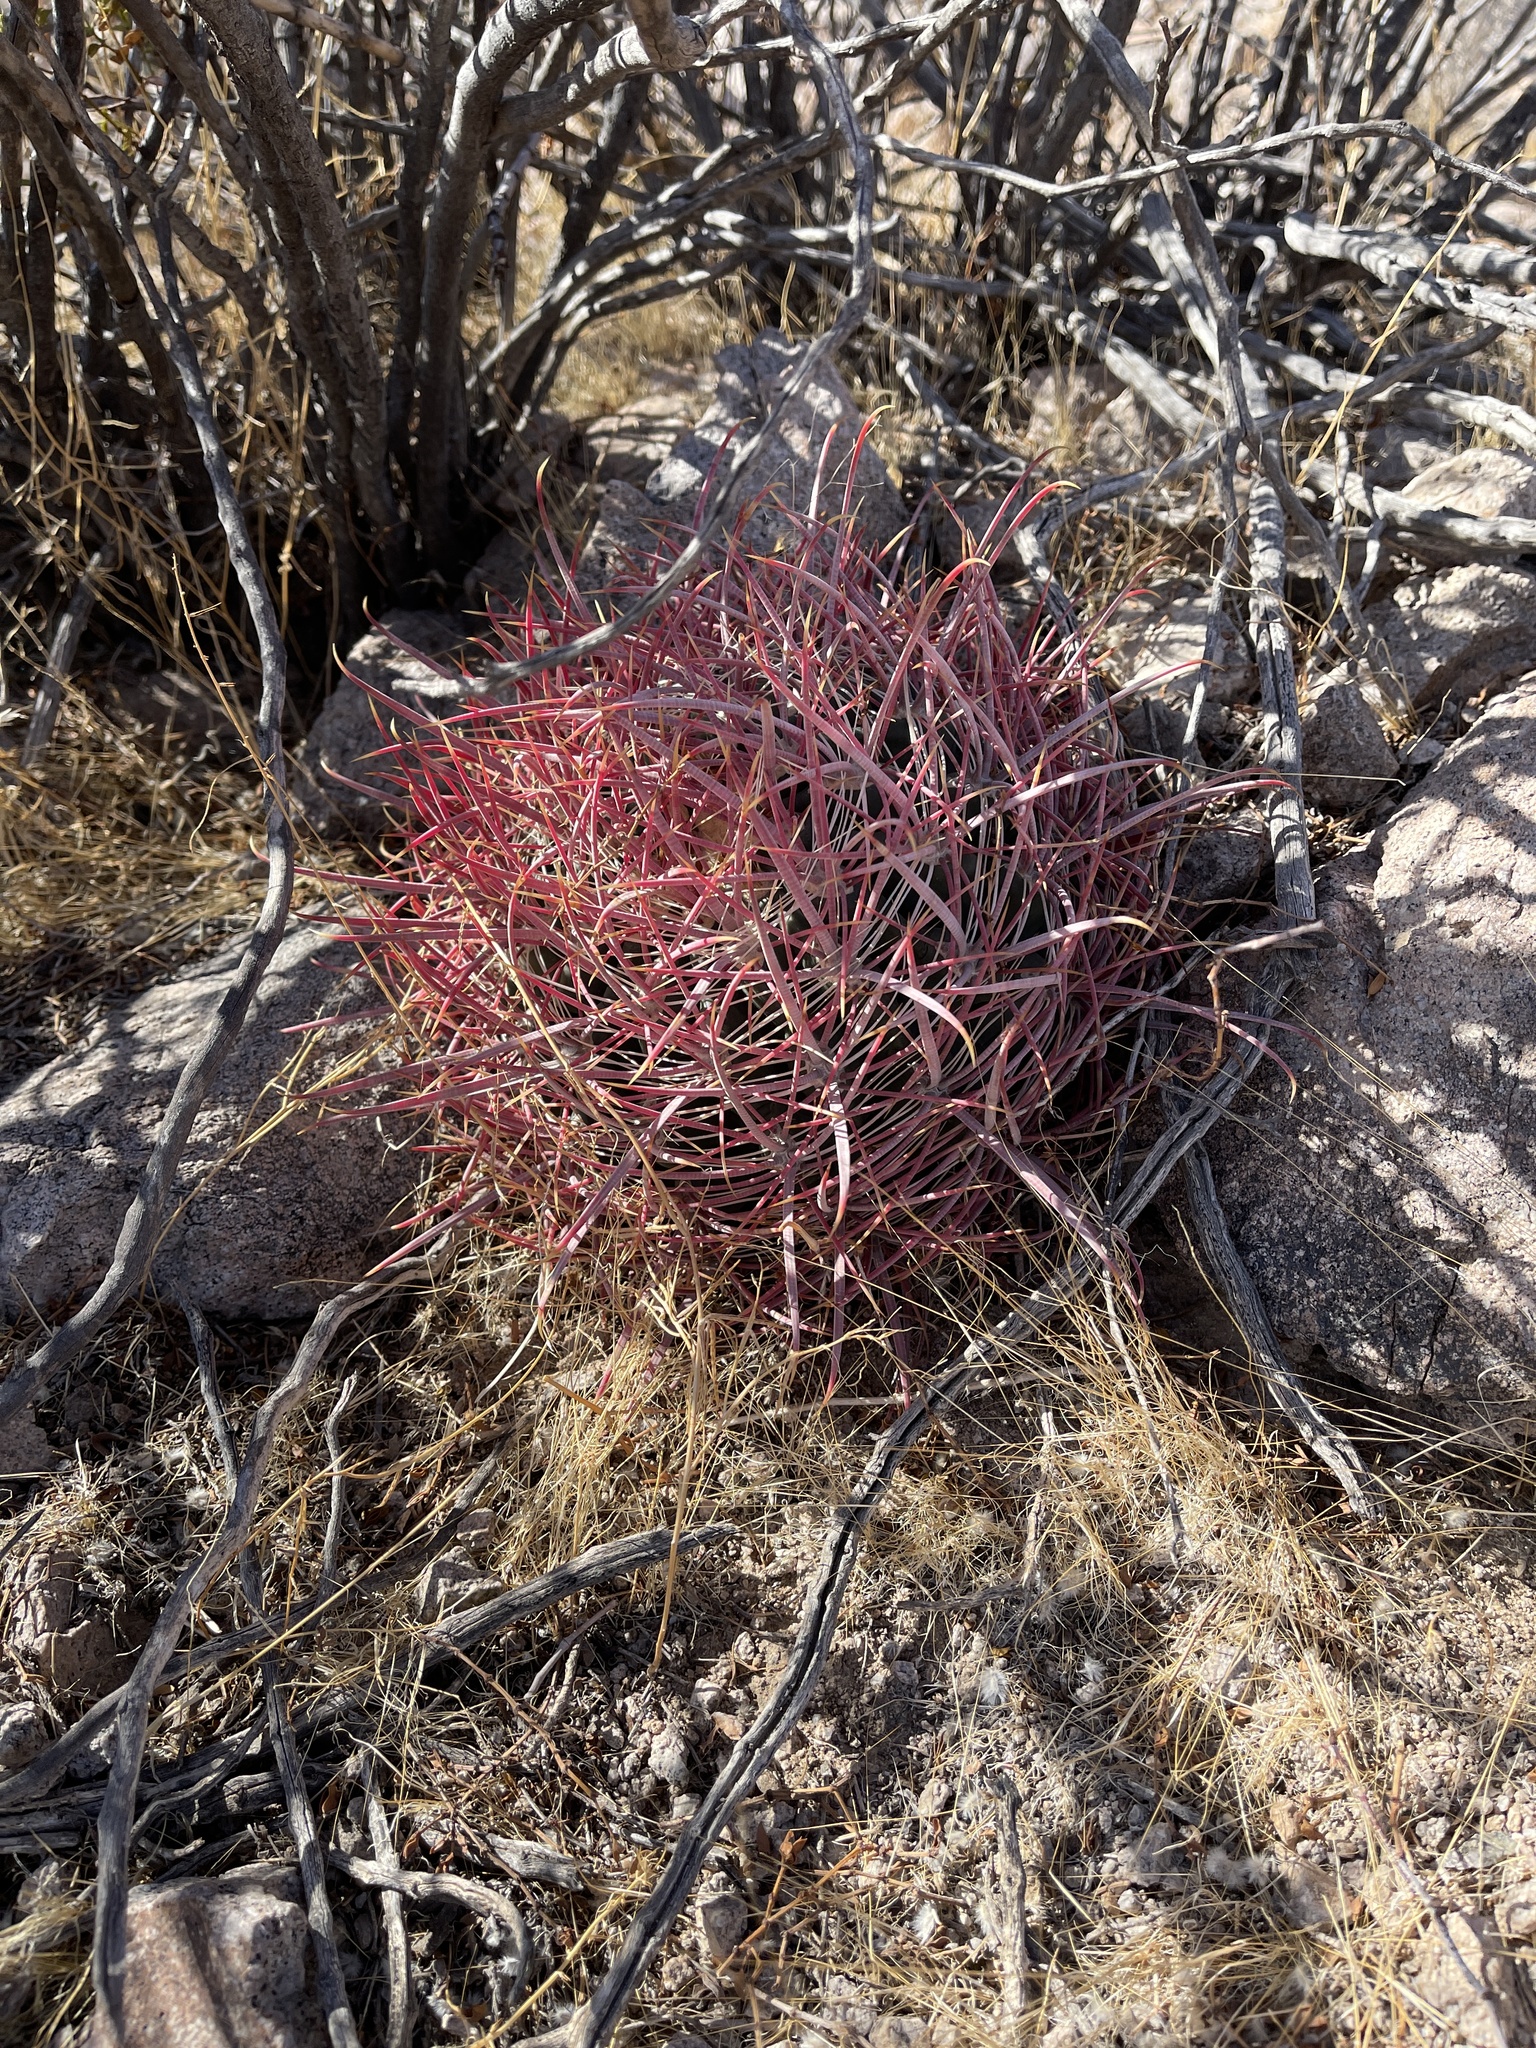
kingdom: Plantae
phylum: Tracheophyta
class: Magnoliopsida
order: Caryophyllales
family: Cactaceae
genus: Ferocactus
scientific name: Ferocactus cylindraceus
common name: California barrel cactus
